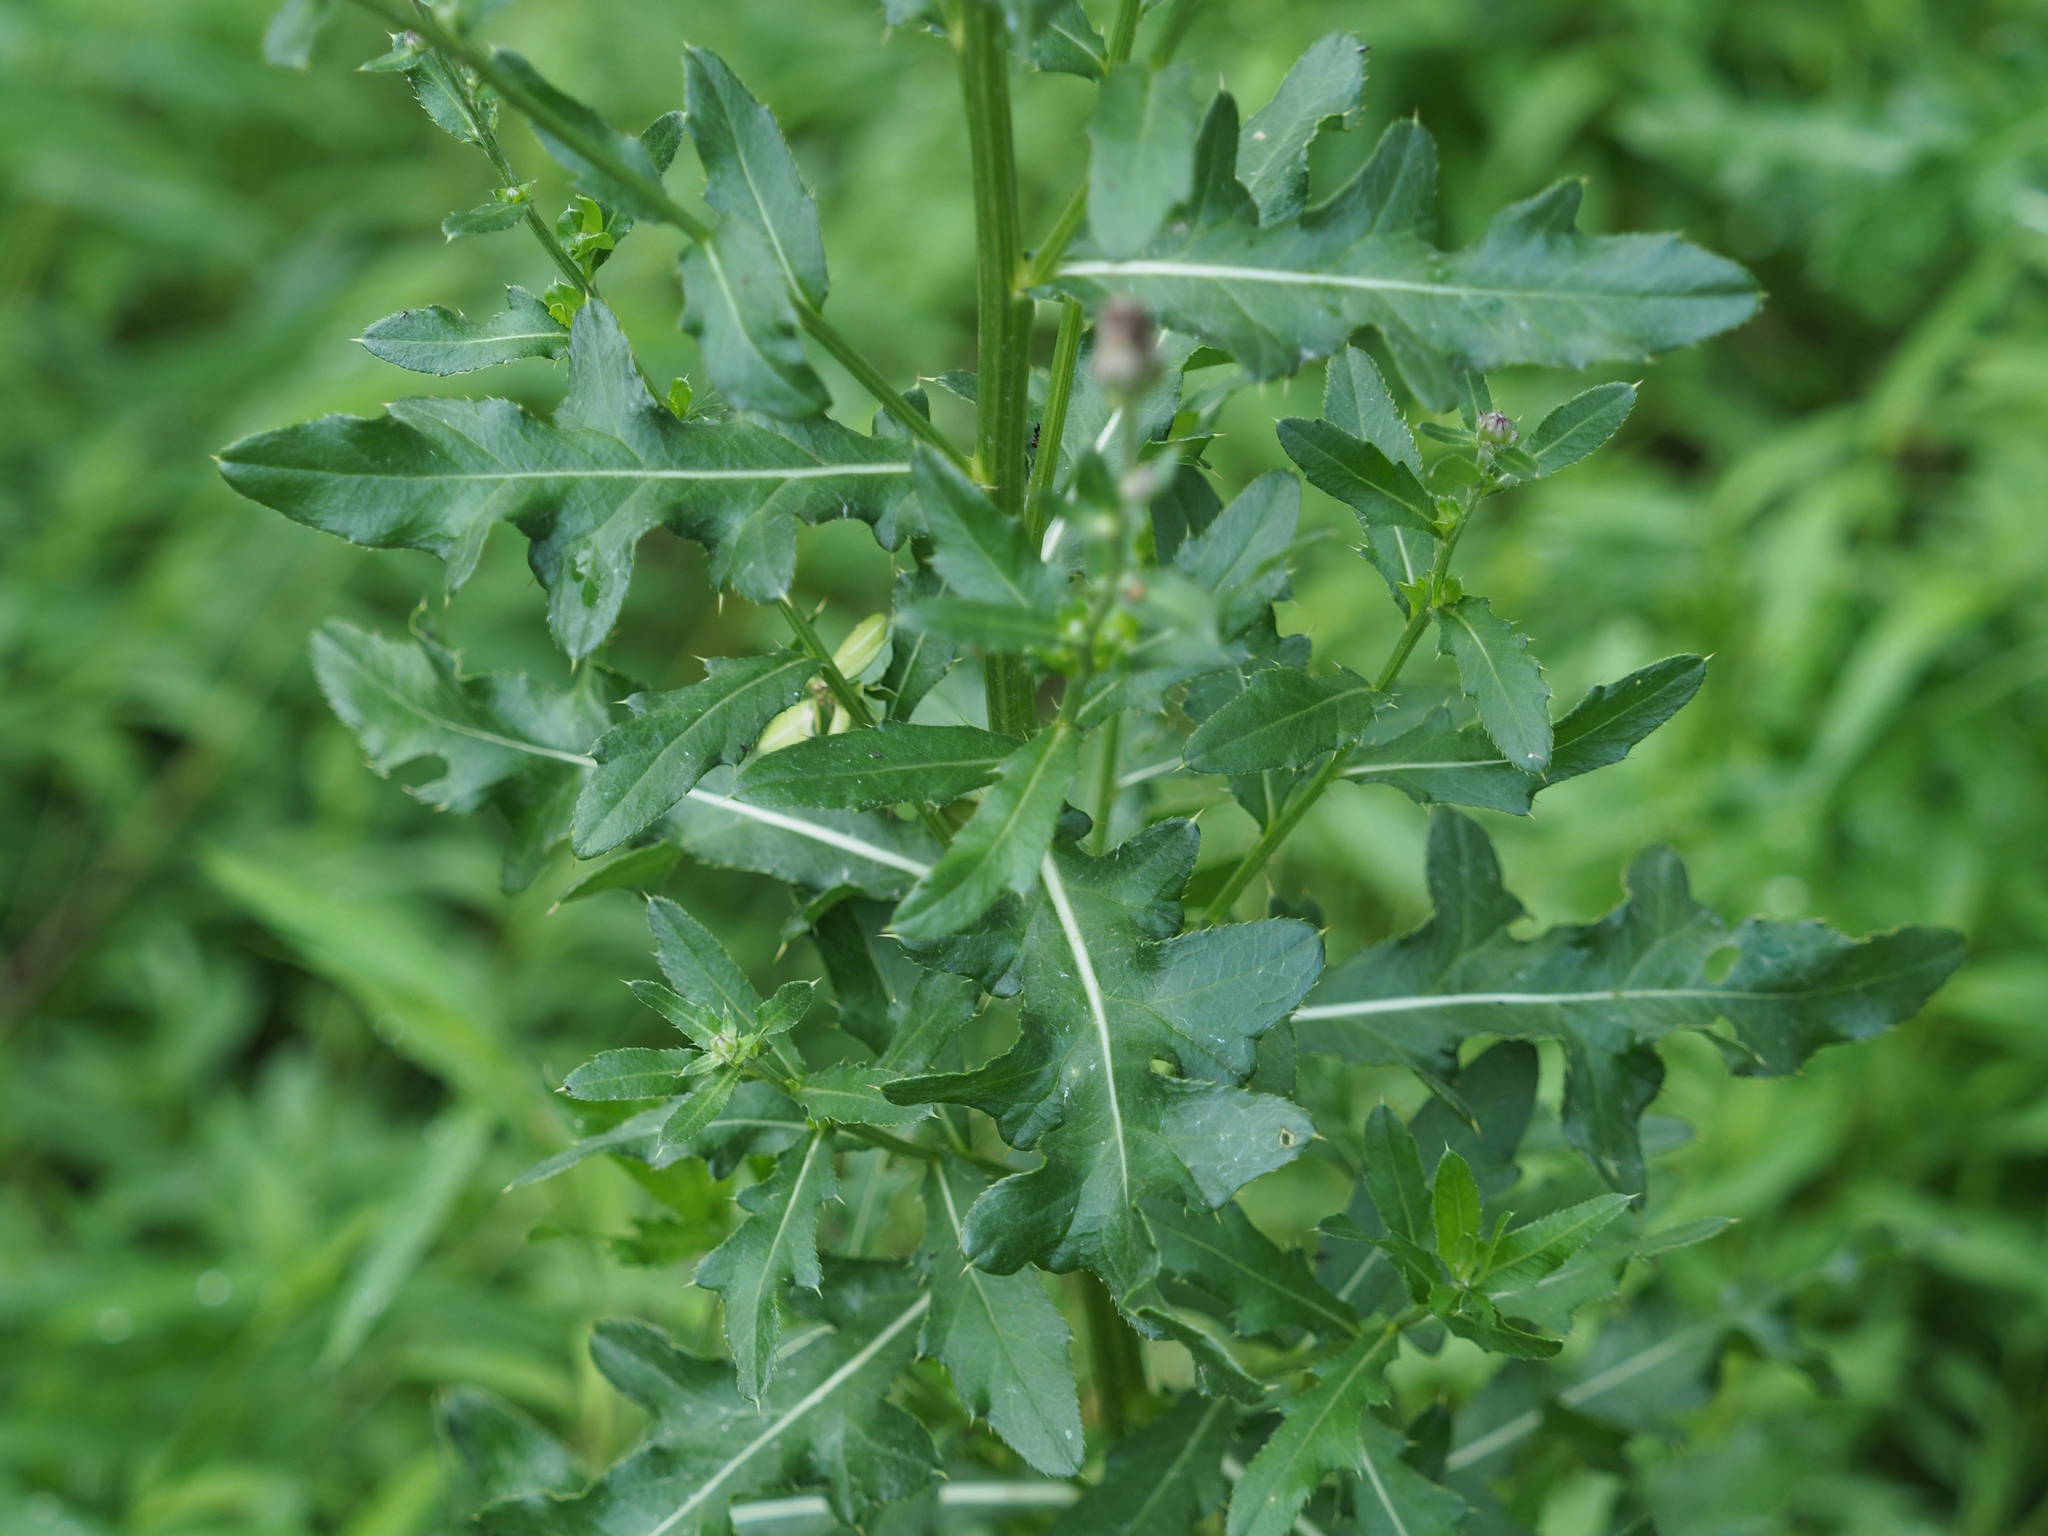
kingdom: Plantae
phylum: Tracheophyta
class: Magnoliopsida
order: Asterales
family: Asteraceae
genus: Cirsium
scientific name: Cirsium arvense
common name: Creeping thistle
